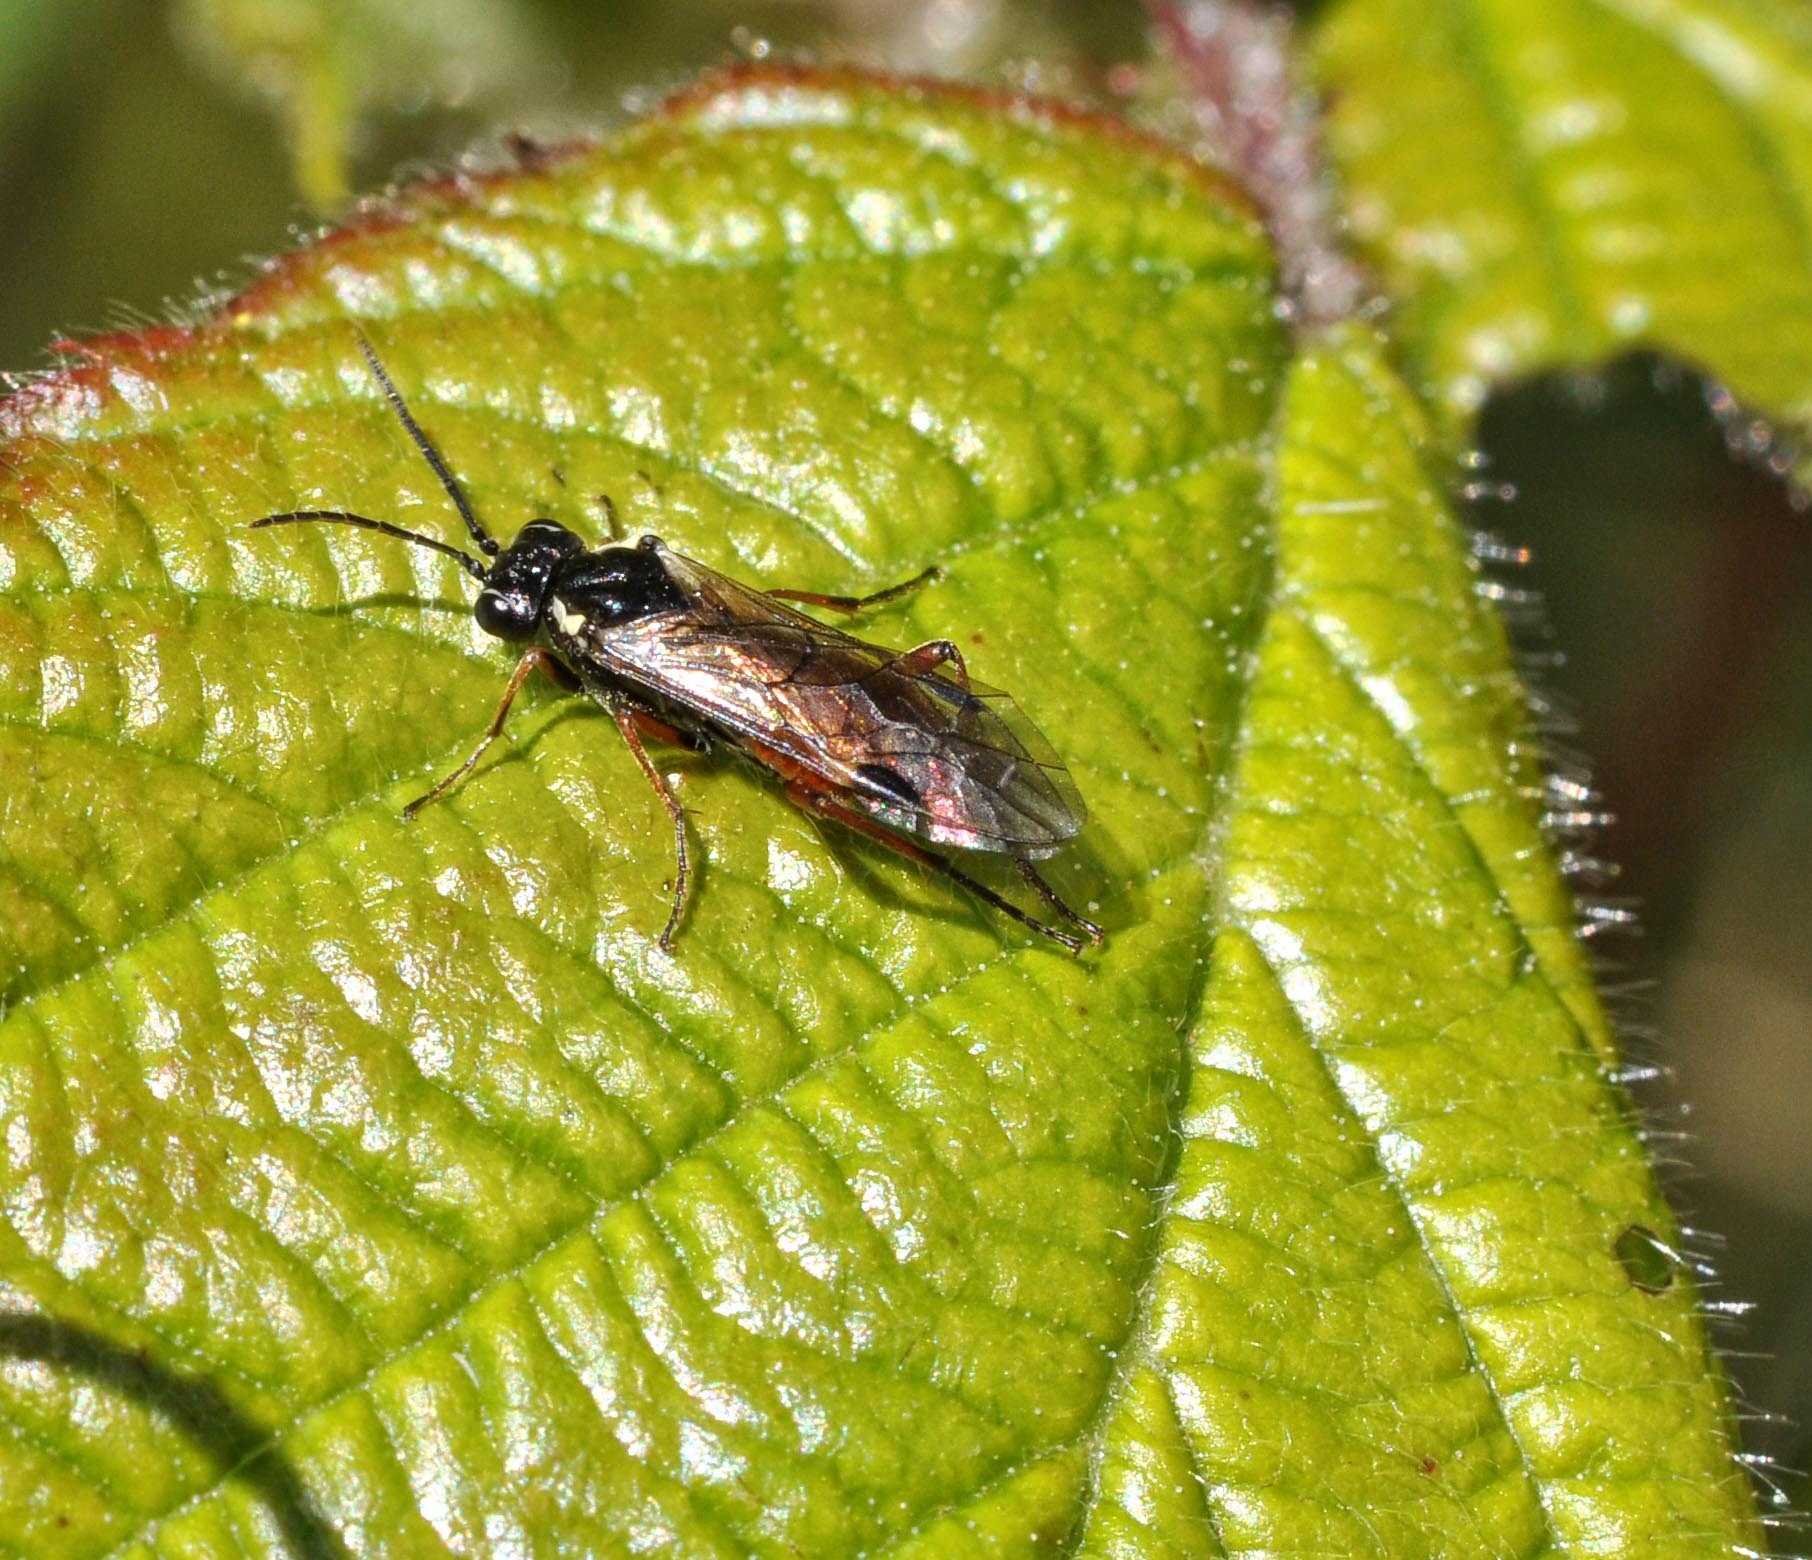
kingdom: Animalia
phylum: Arthropoda
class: Insecta
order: Hymenoptera
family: Tenthredinidae
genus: Aglaostigma
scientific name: Aglaostigma aucupariae
